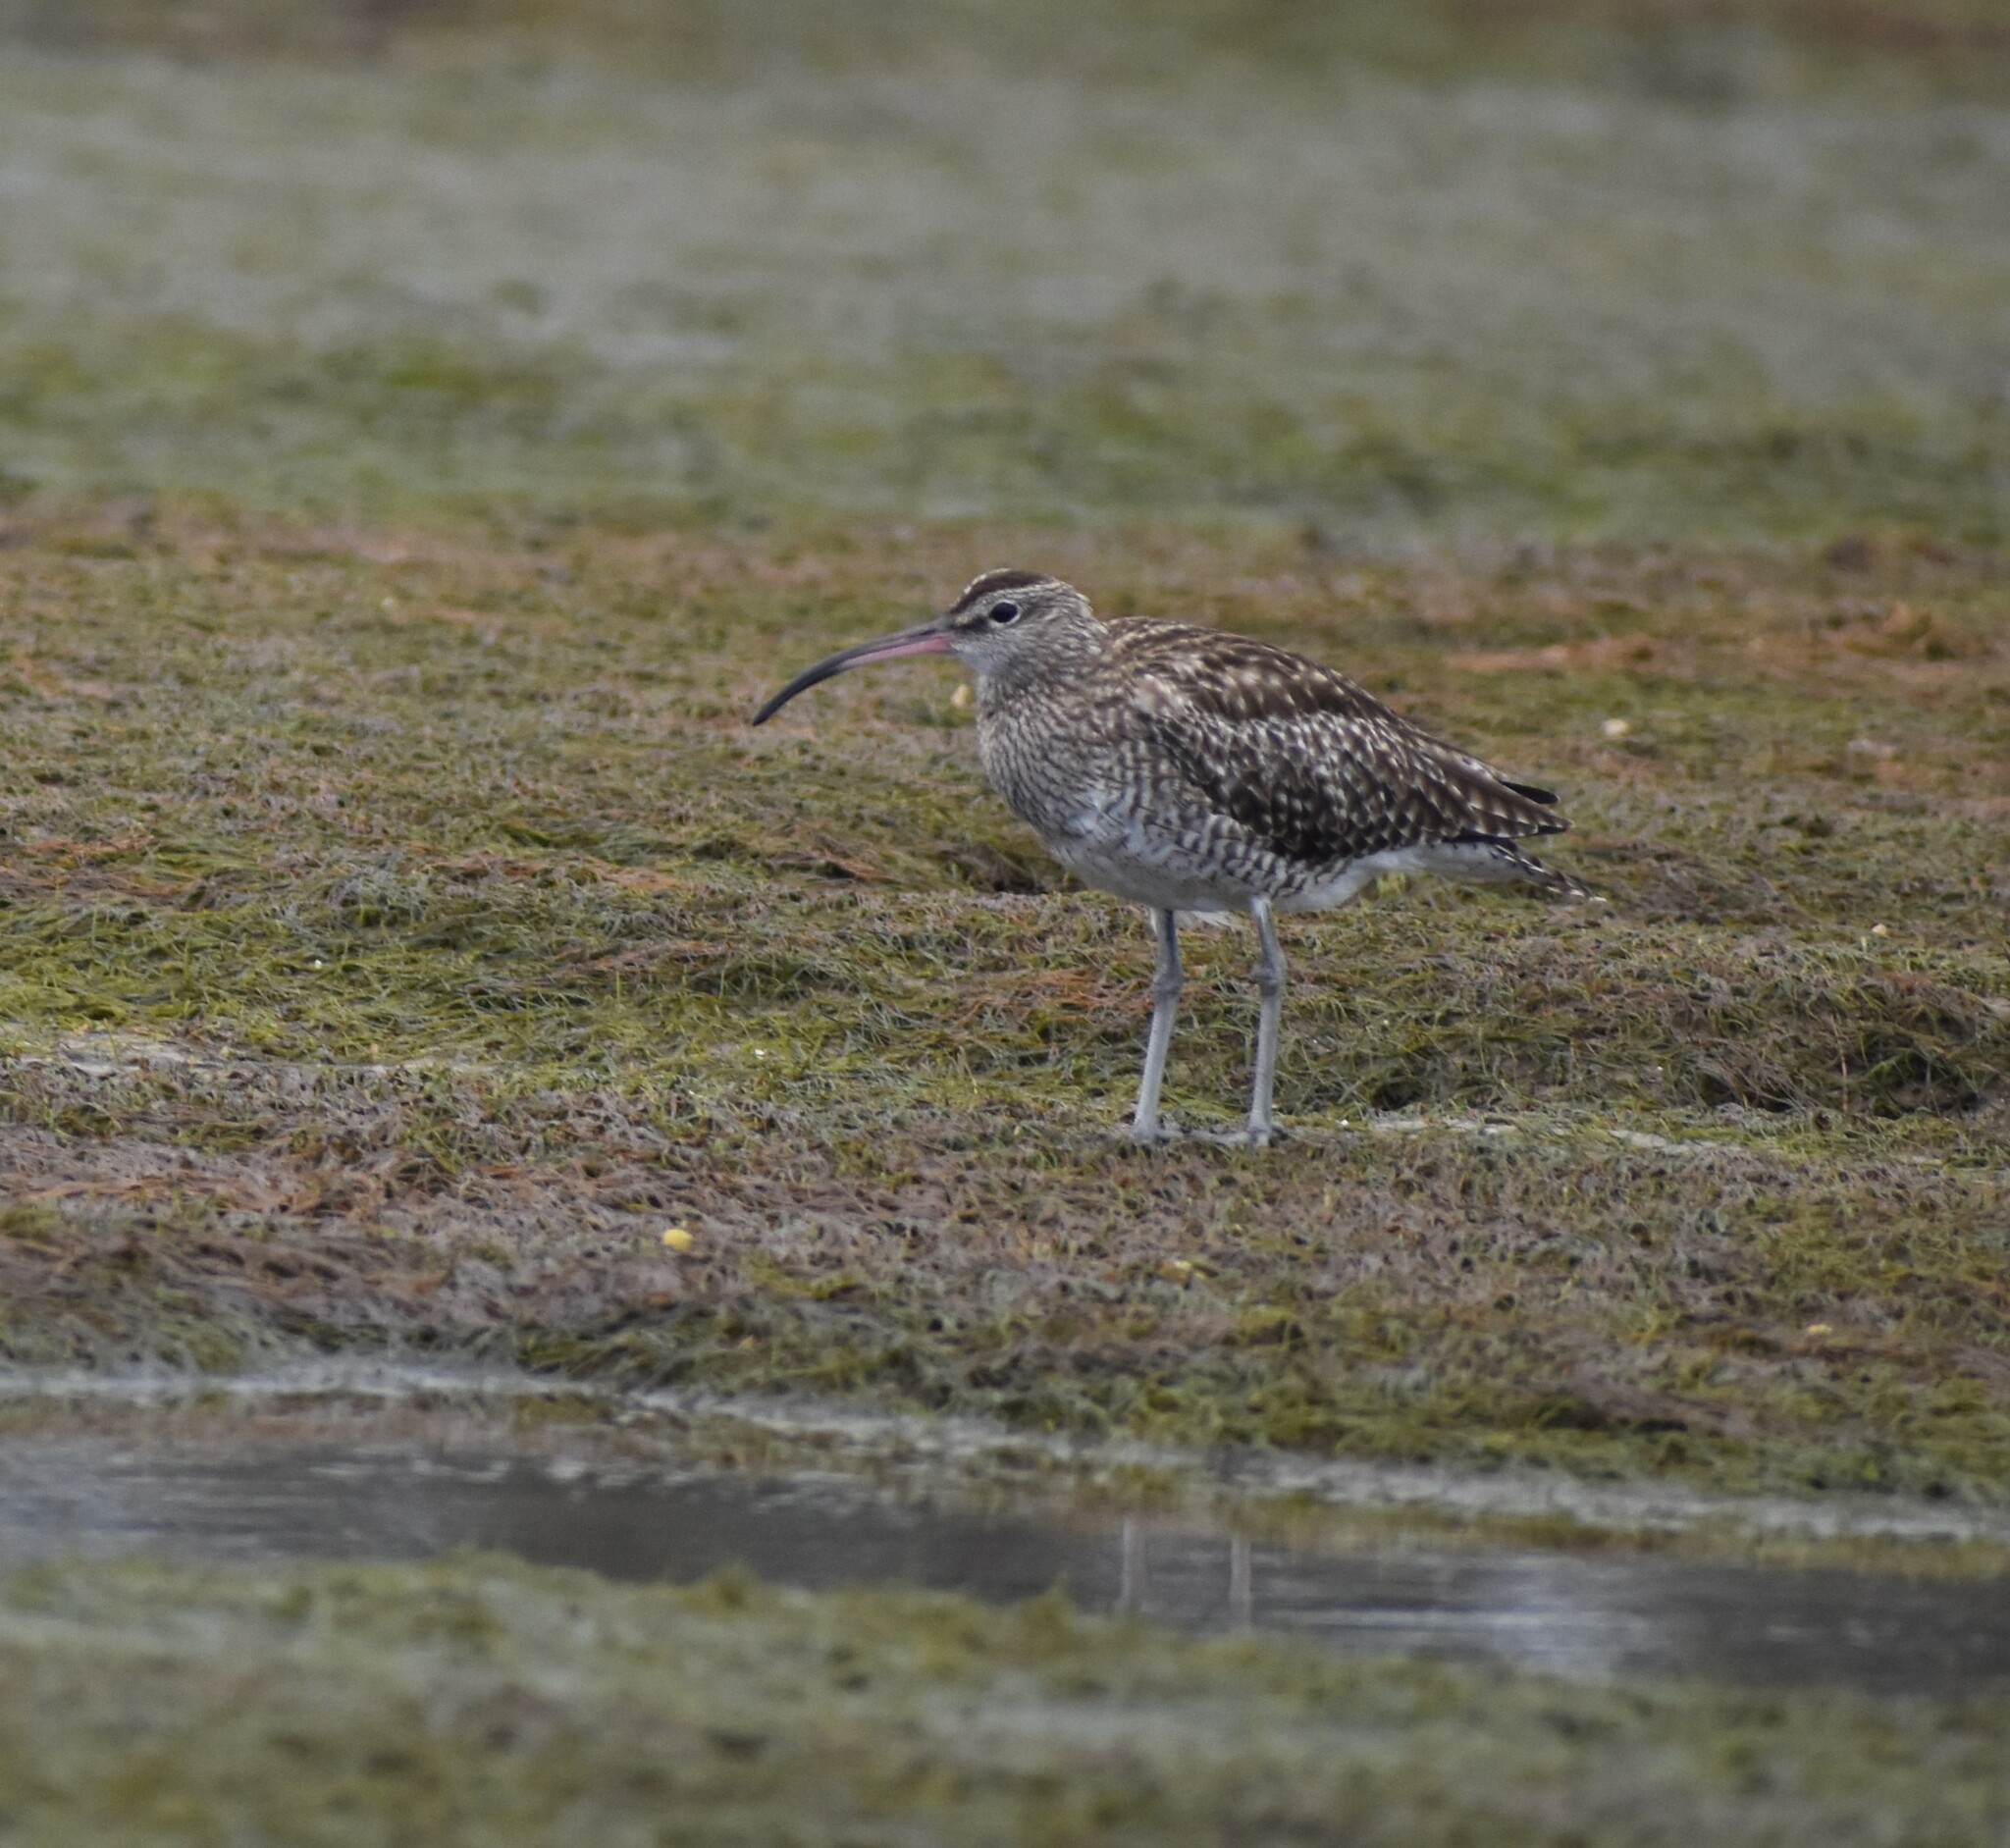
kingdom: Animalia
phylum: Chordata
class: Aves
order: Charadriiformes
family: Scolopacidae
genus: Numenius
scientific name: Numenius phaeopus
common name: Whimbrel
